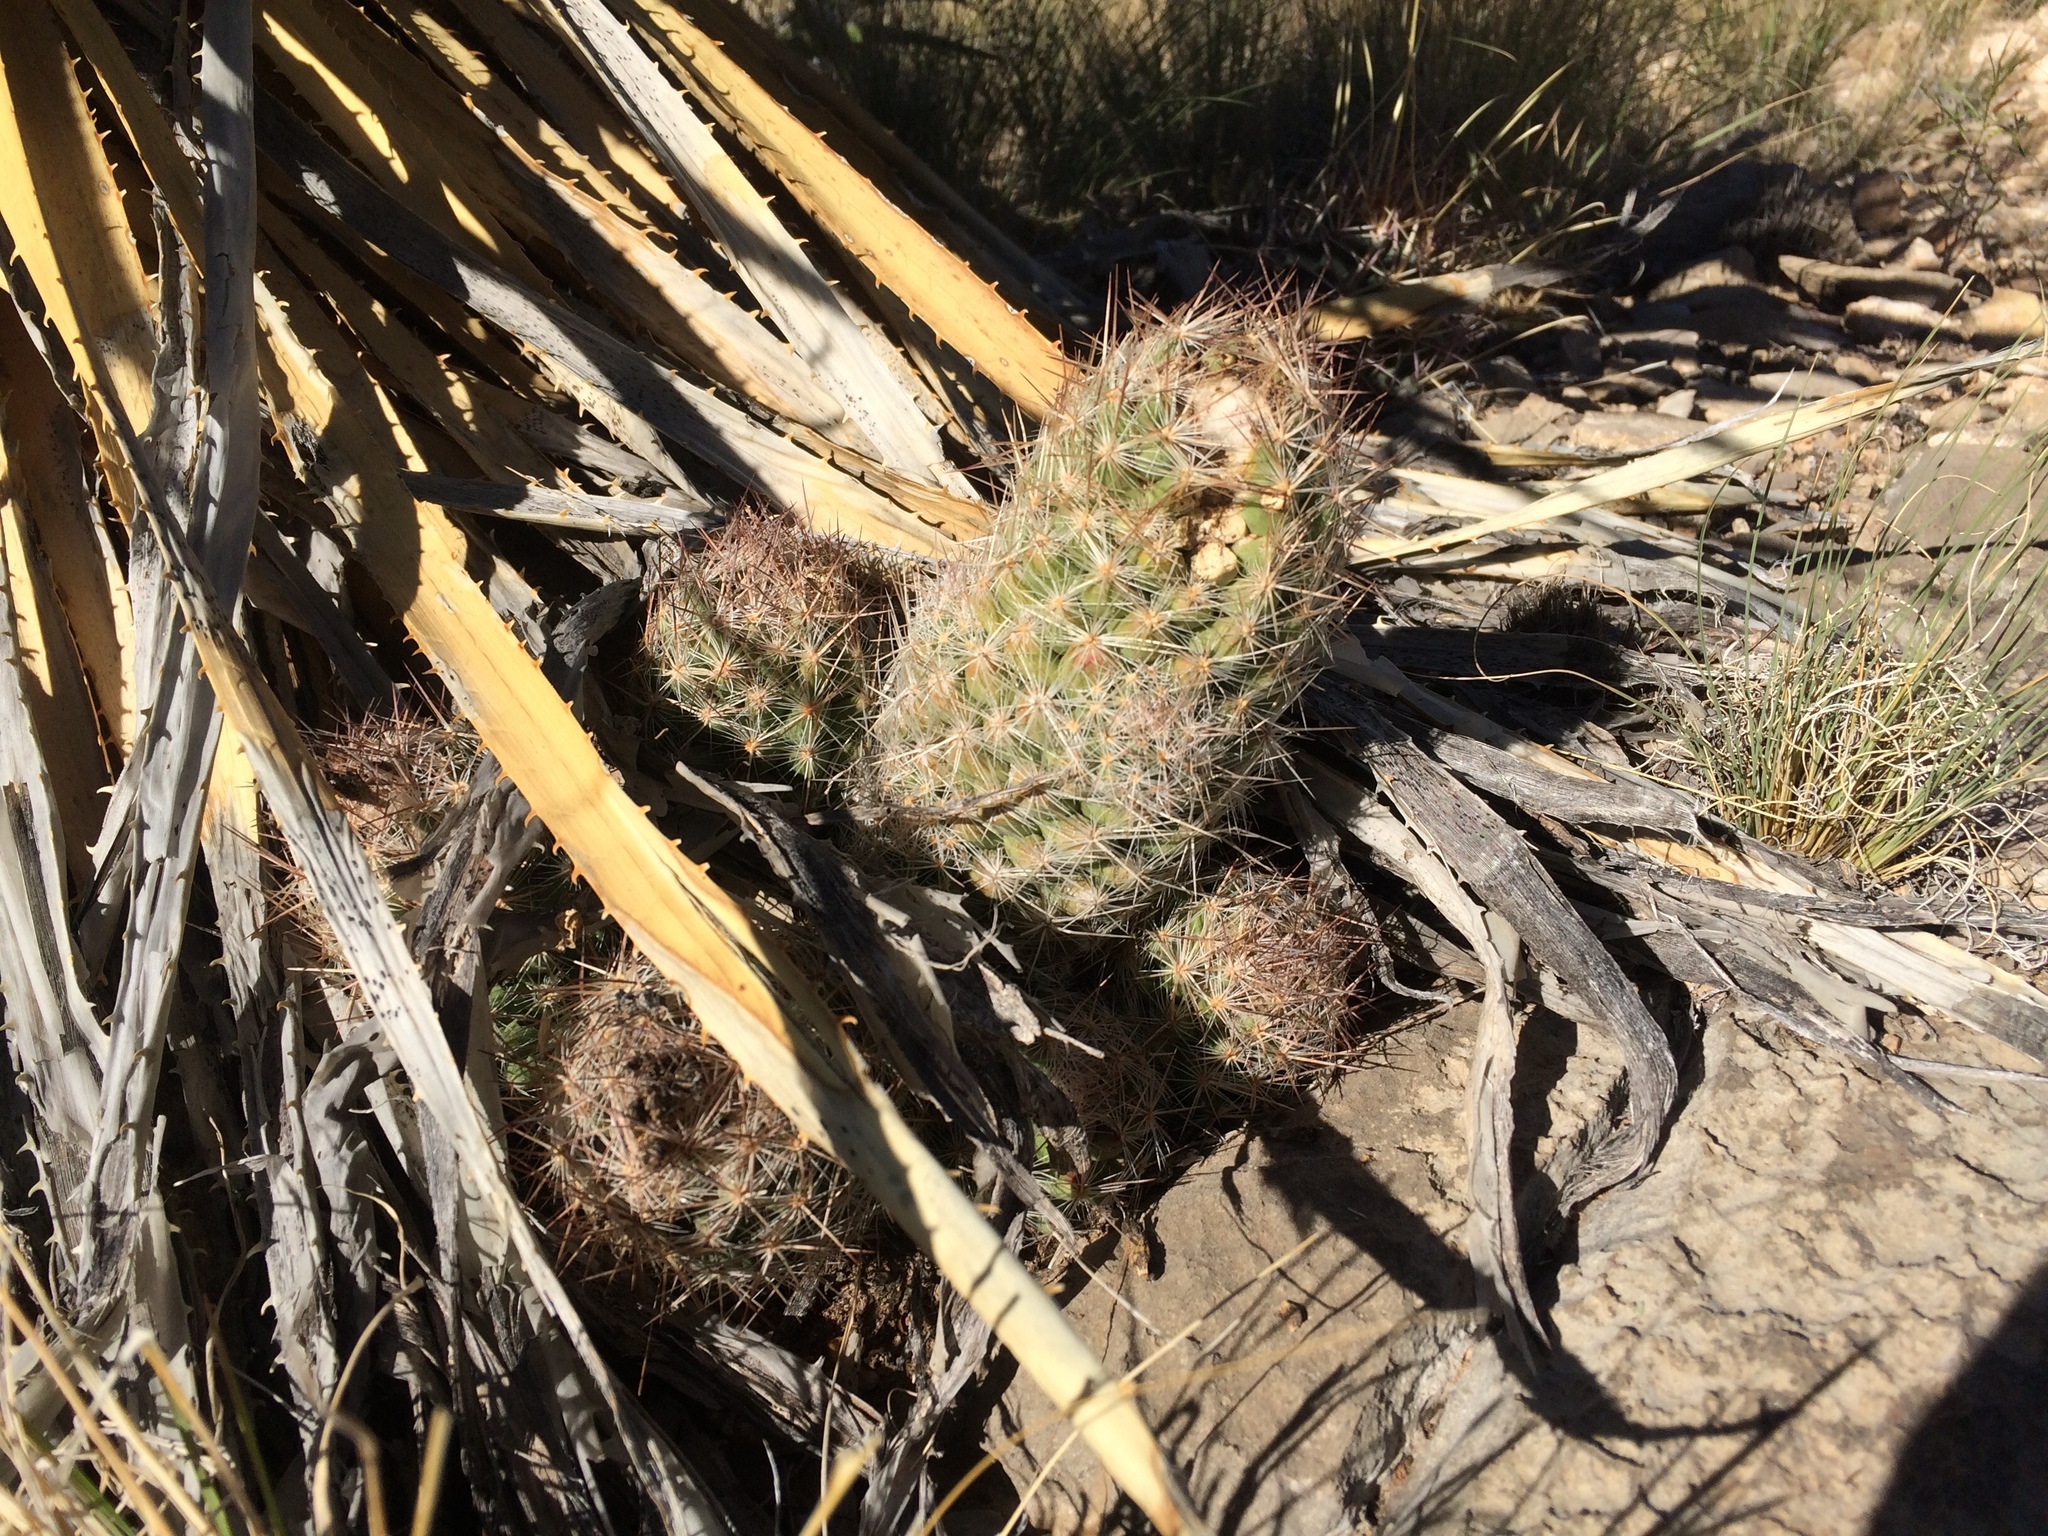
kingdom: Plantae
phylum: Tracheophyta
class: Magnoliopsida
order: Caryophyllales
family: Cactaceae
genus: Pelecyphora
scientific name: Pelecyphora tuberculosa
